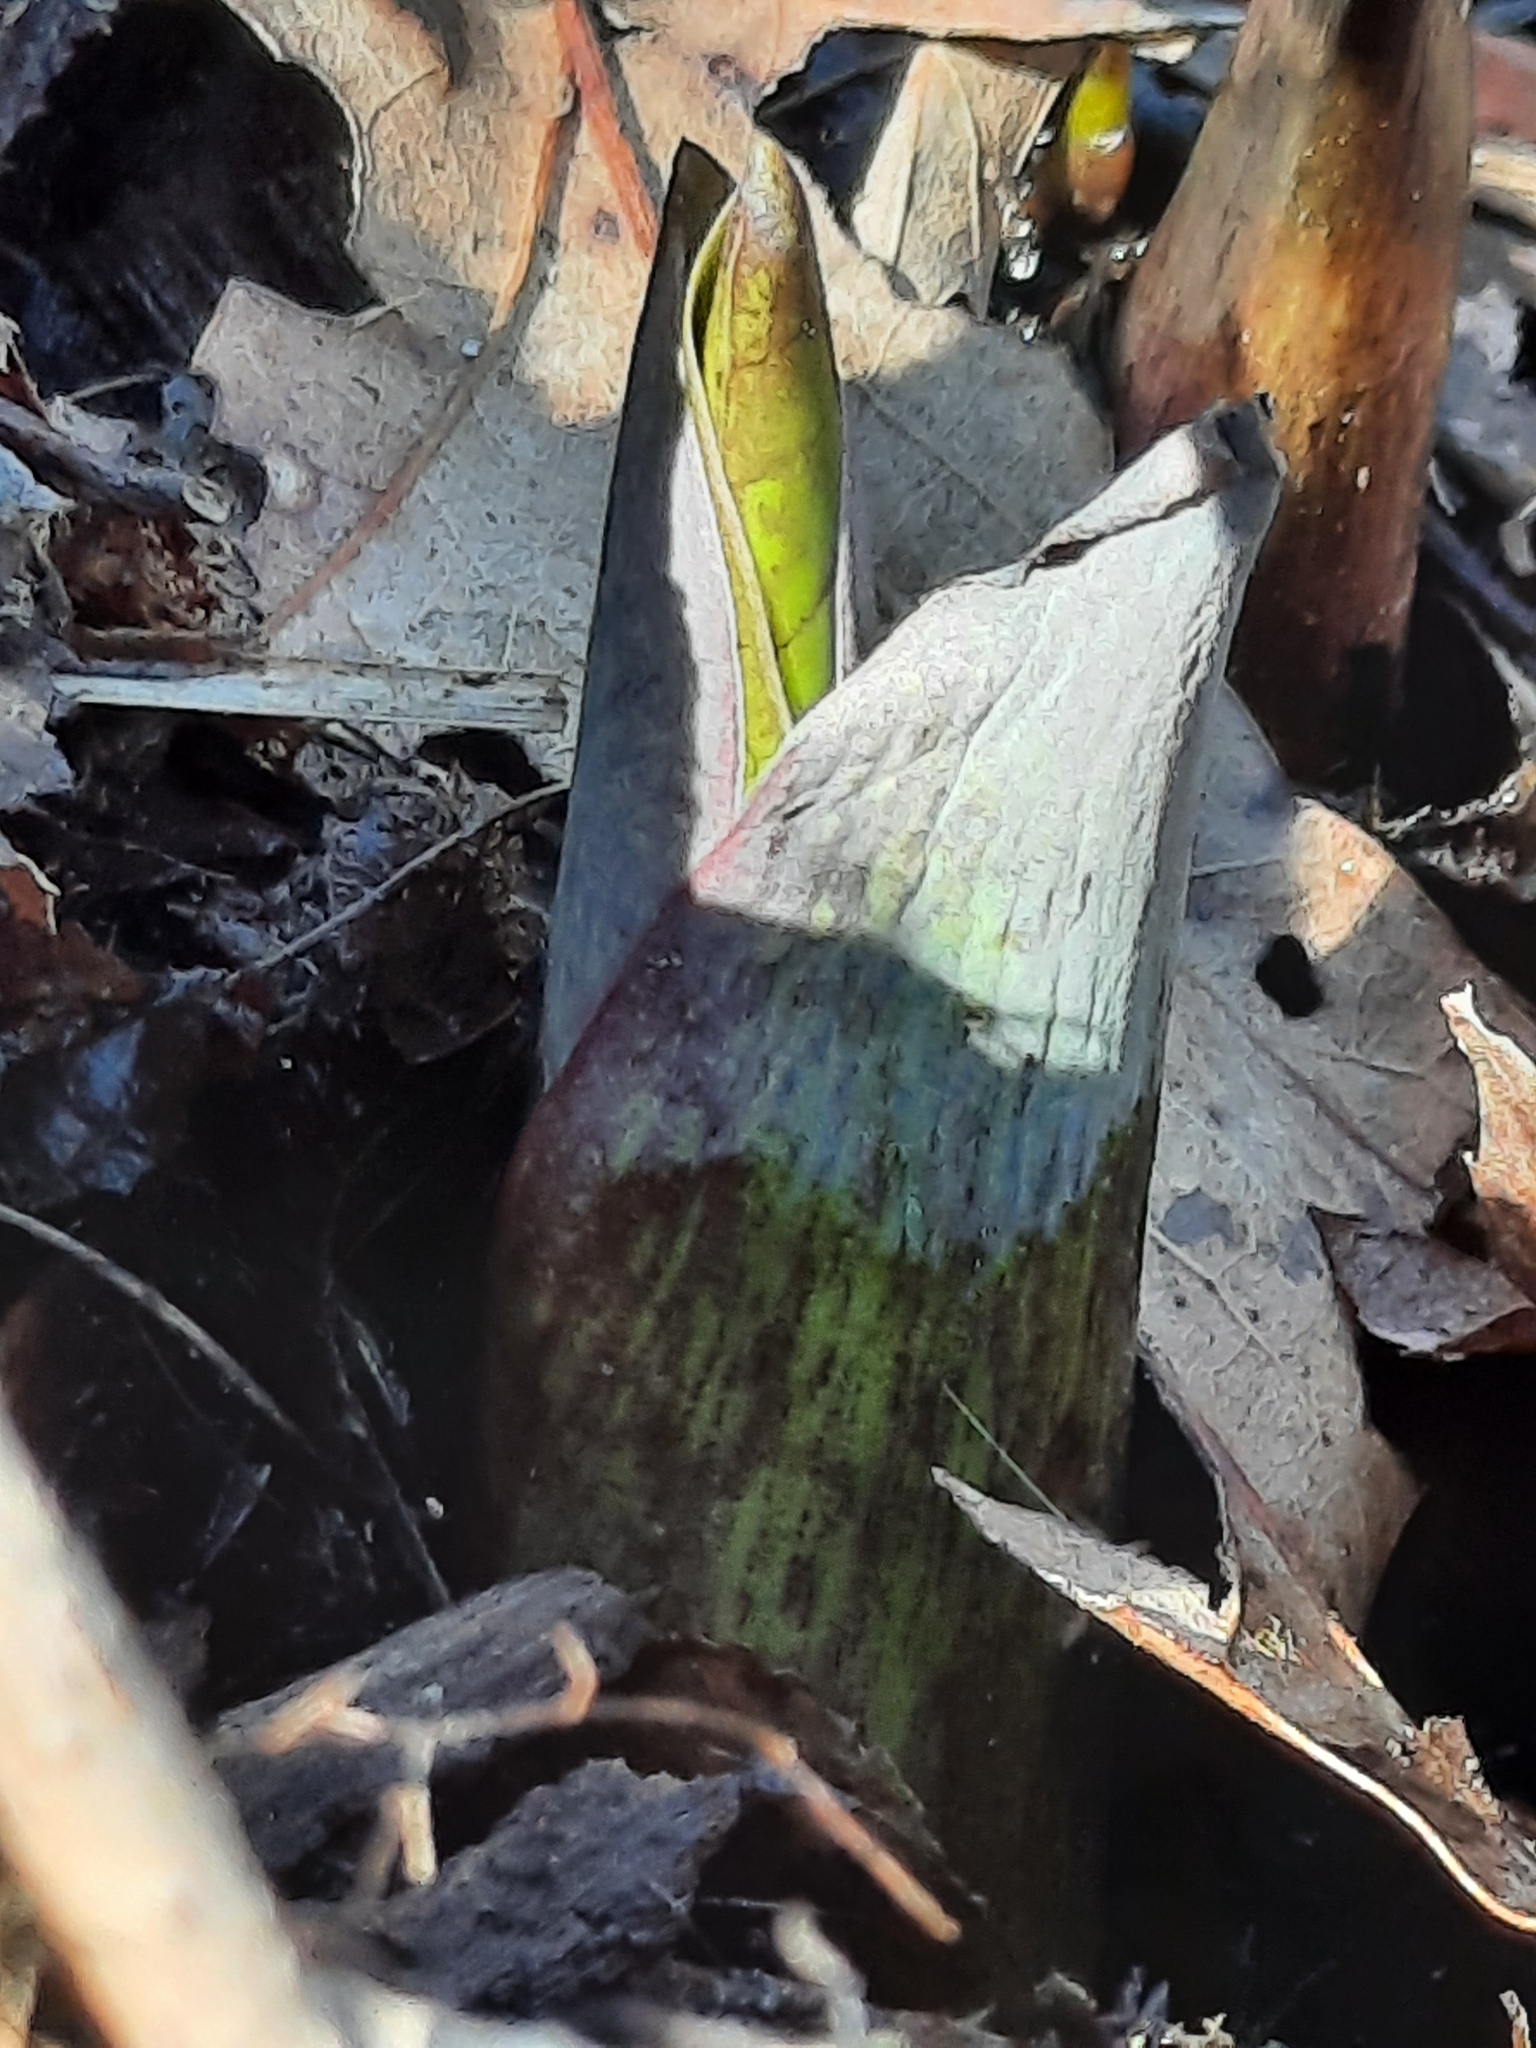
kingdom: Plantae
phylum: Tracheophyta
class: Liliopsida
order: Liliales
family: Melanthiaceae
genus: Veratrum
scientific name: Veratrum viride
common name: American false hellebore
